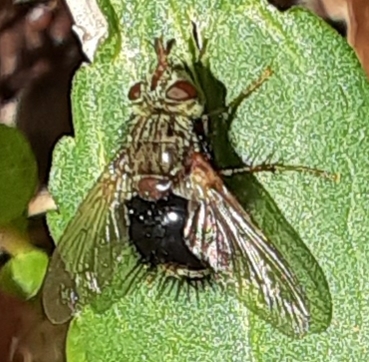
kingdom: Animalia
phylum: Arthropoda
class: Insecta
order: Diptera
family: Tachinidae
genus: Epalpus
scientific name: Epalpus signifer
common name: Early tachinid fly
